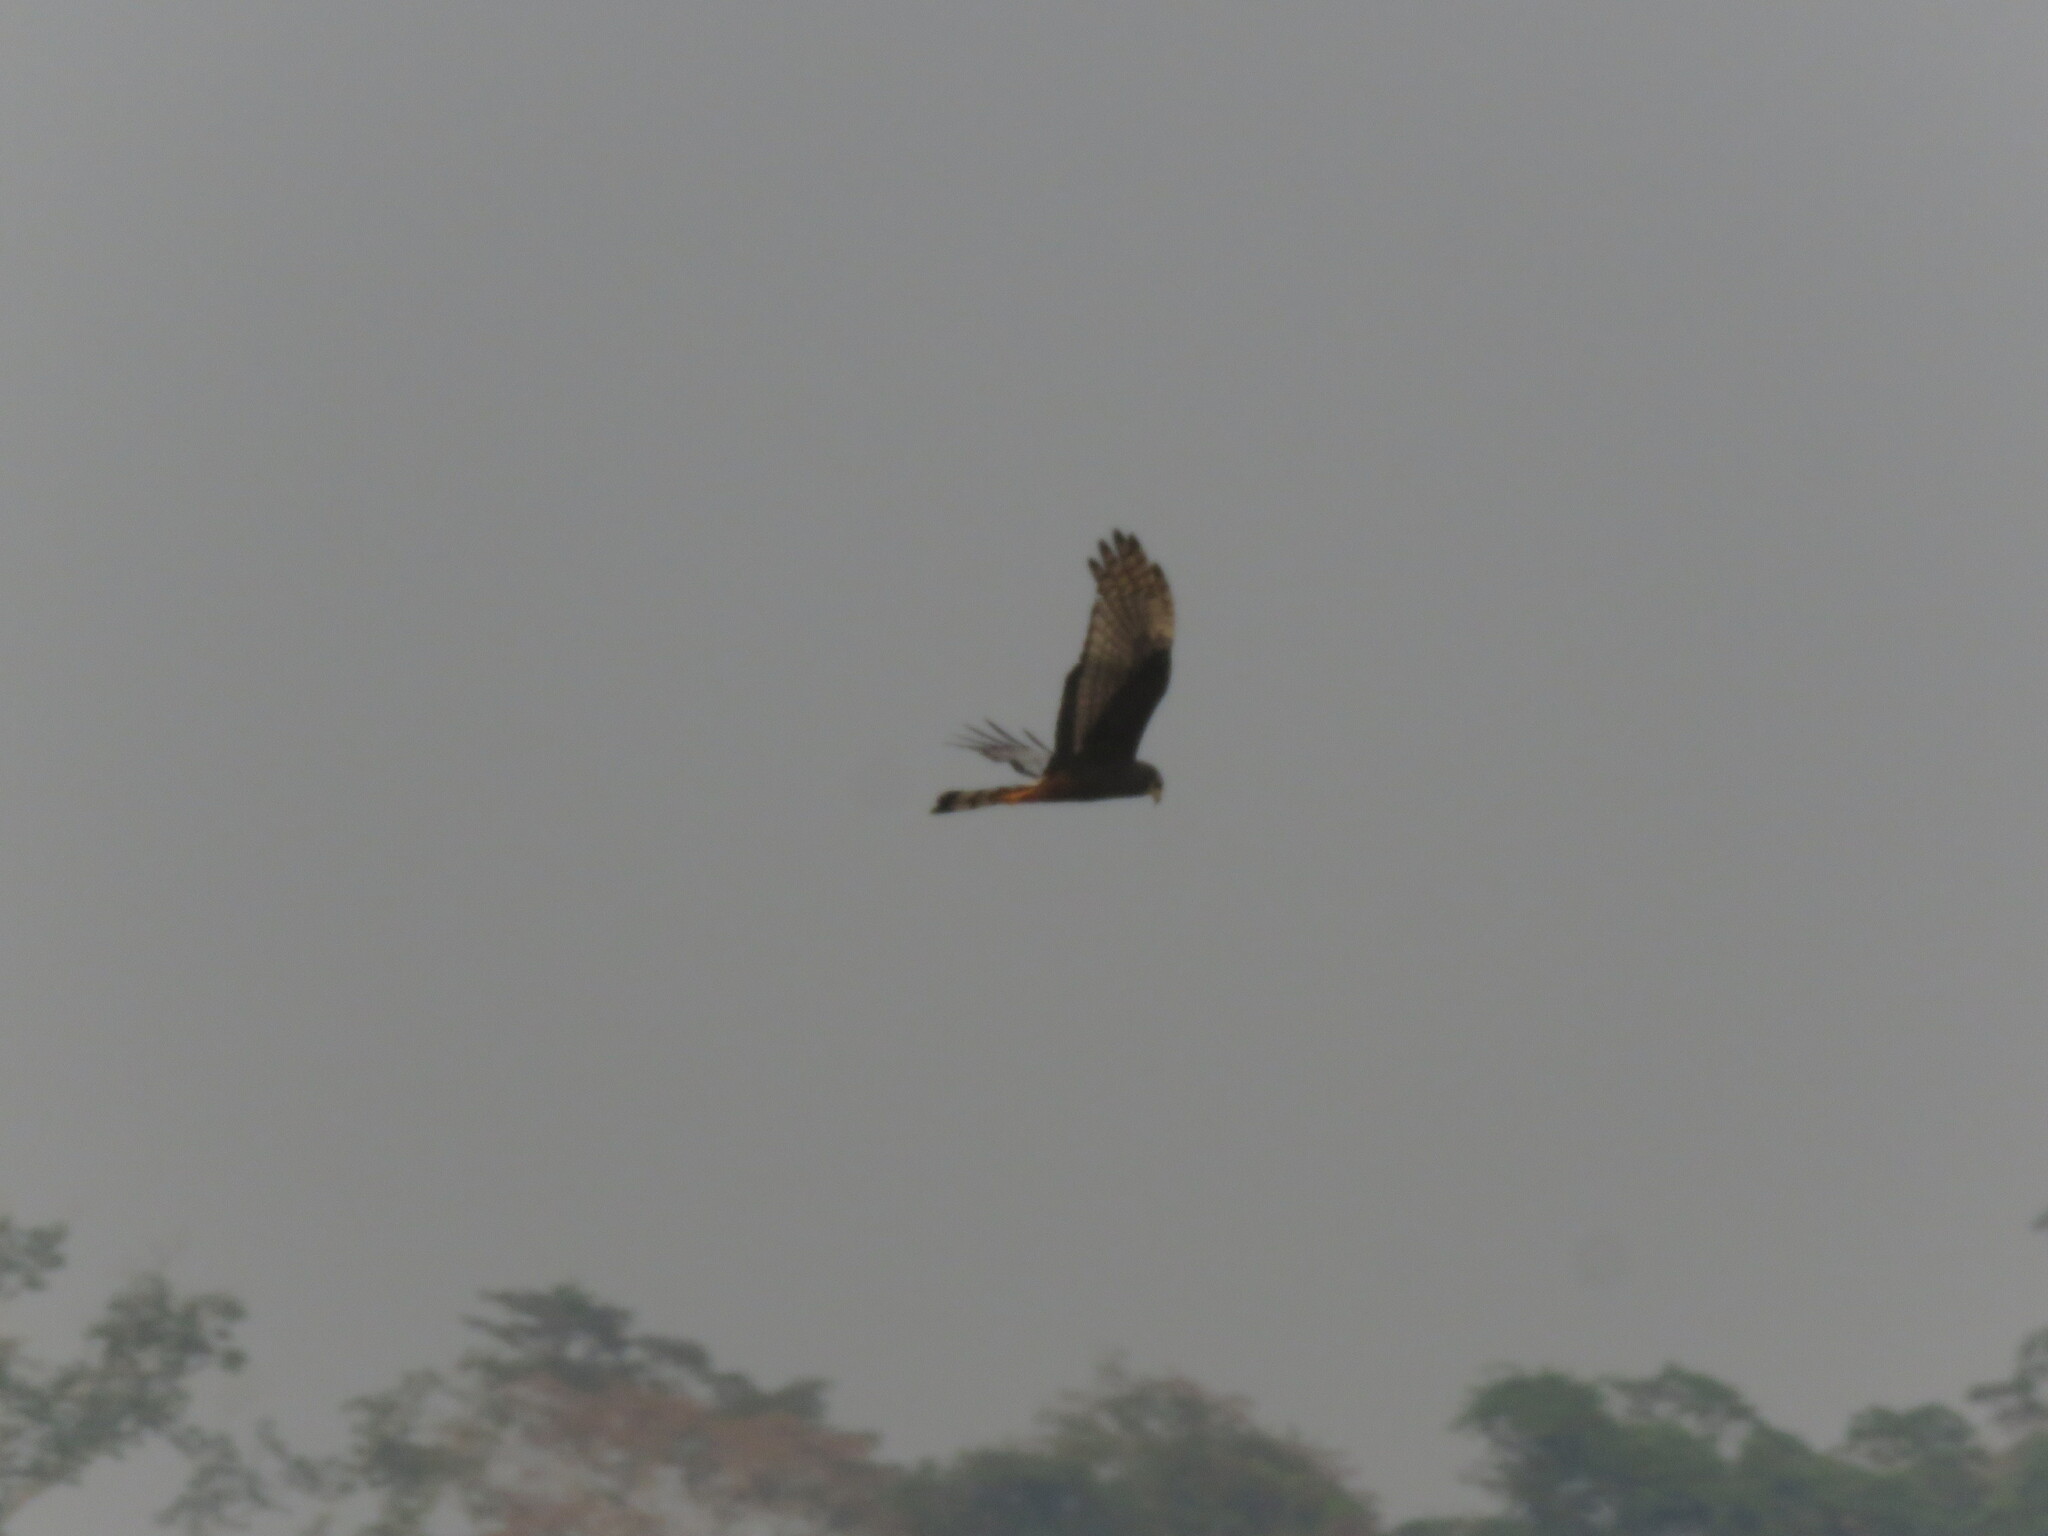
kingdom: Animalia
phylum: Chordata
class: Aves
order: Accipitriformes
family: Accipitridae
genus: Circus
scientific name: Circus buffoni
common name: Long-winged harrier
